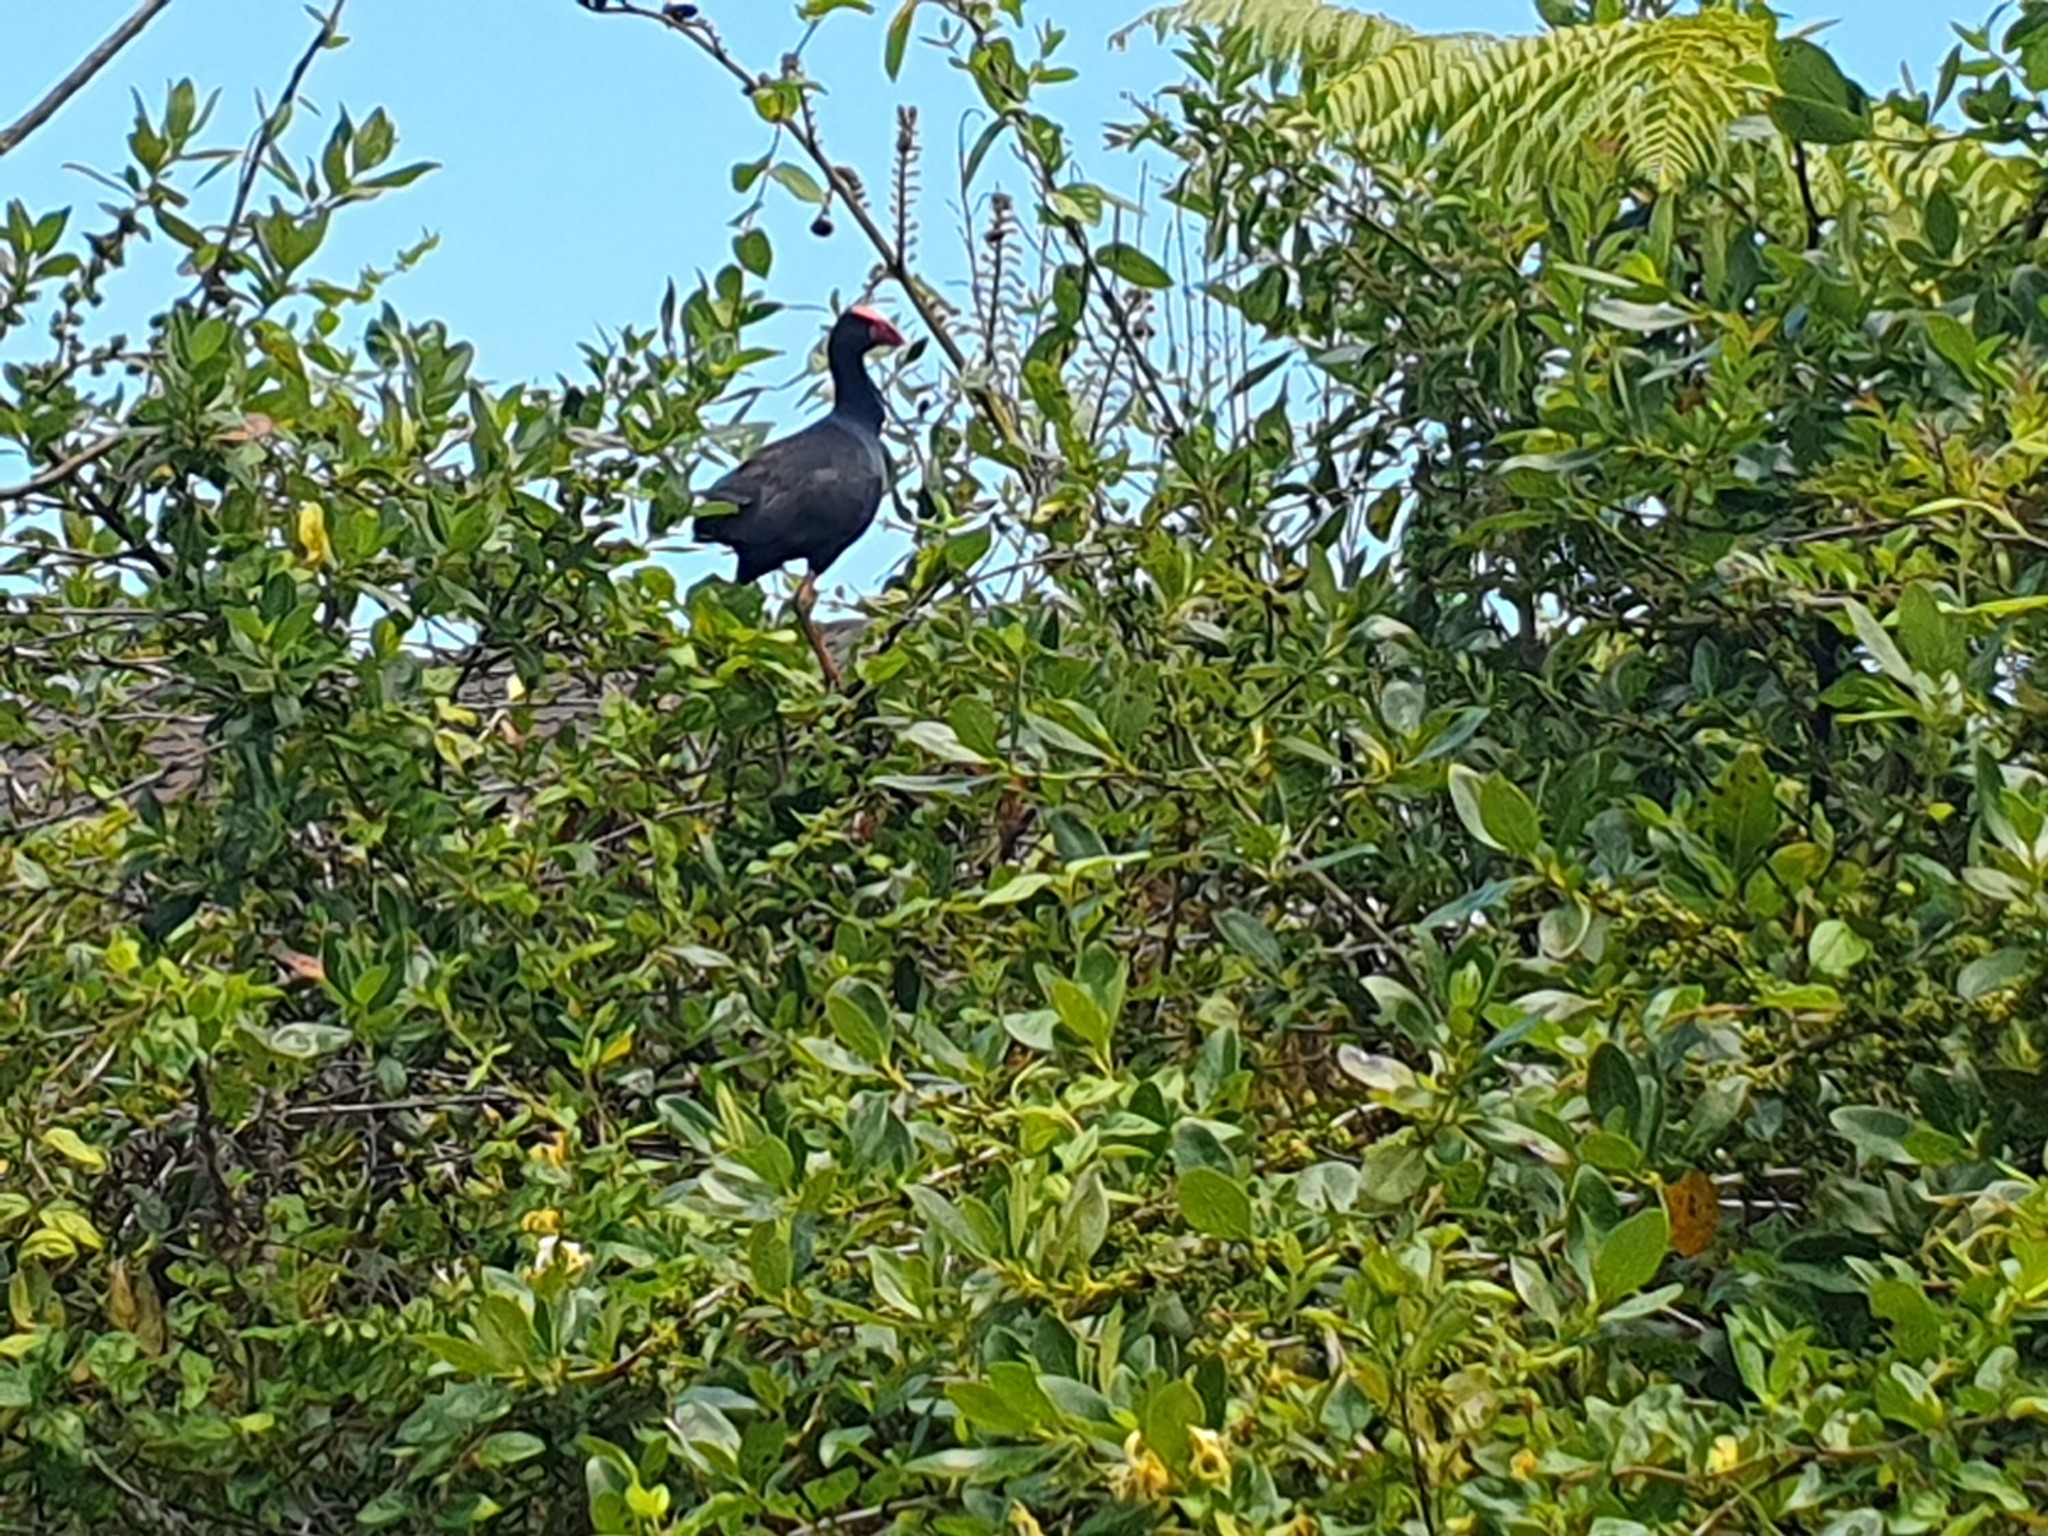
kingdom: Animalia
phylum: Chordata
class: Aves
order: Gruiformes
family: Rallidae
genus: Porphyrio
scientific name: Porphyrio melanotus
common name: Australasian swamphen
